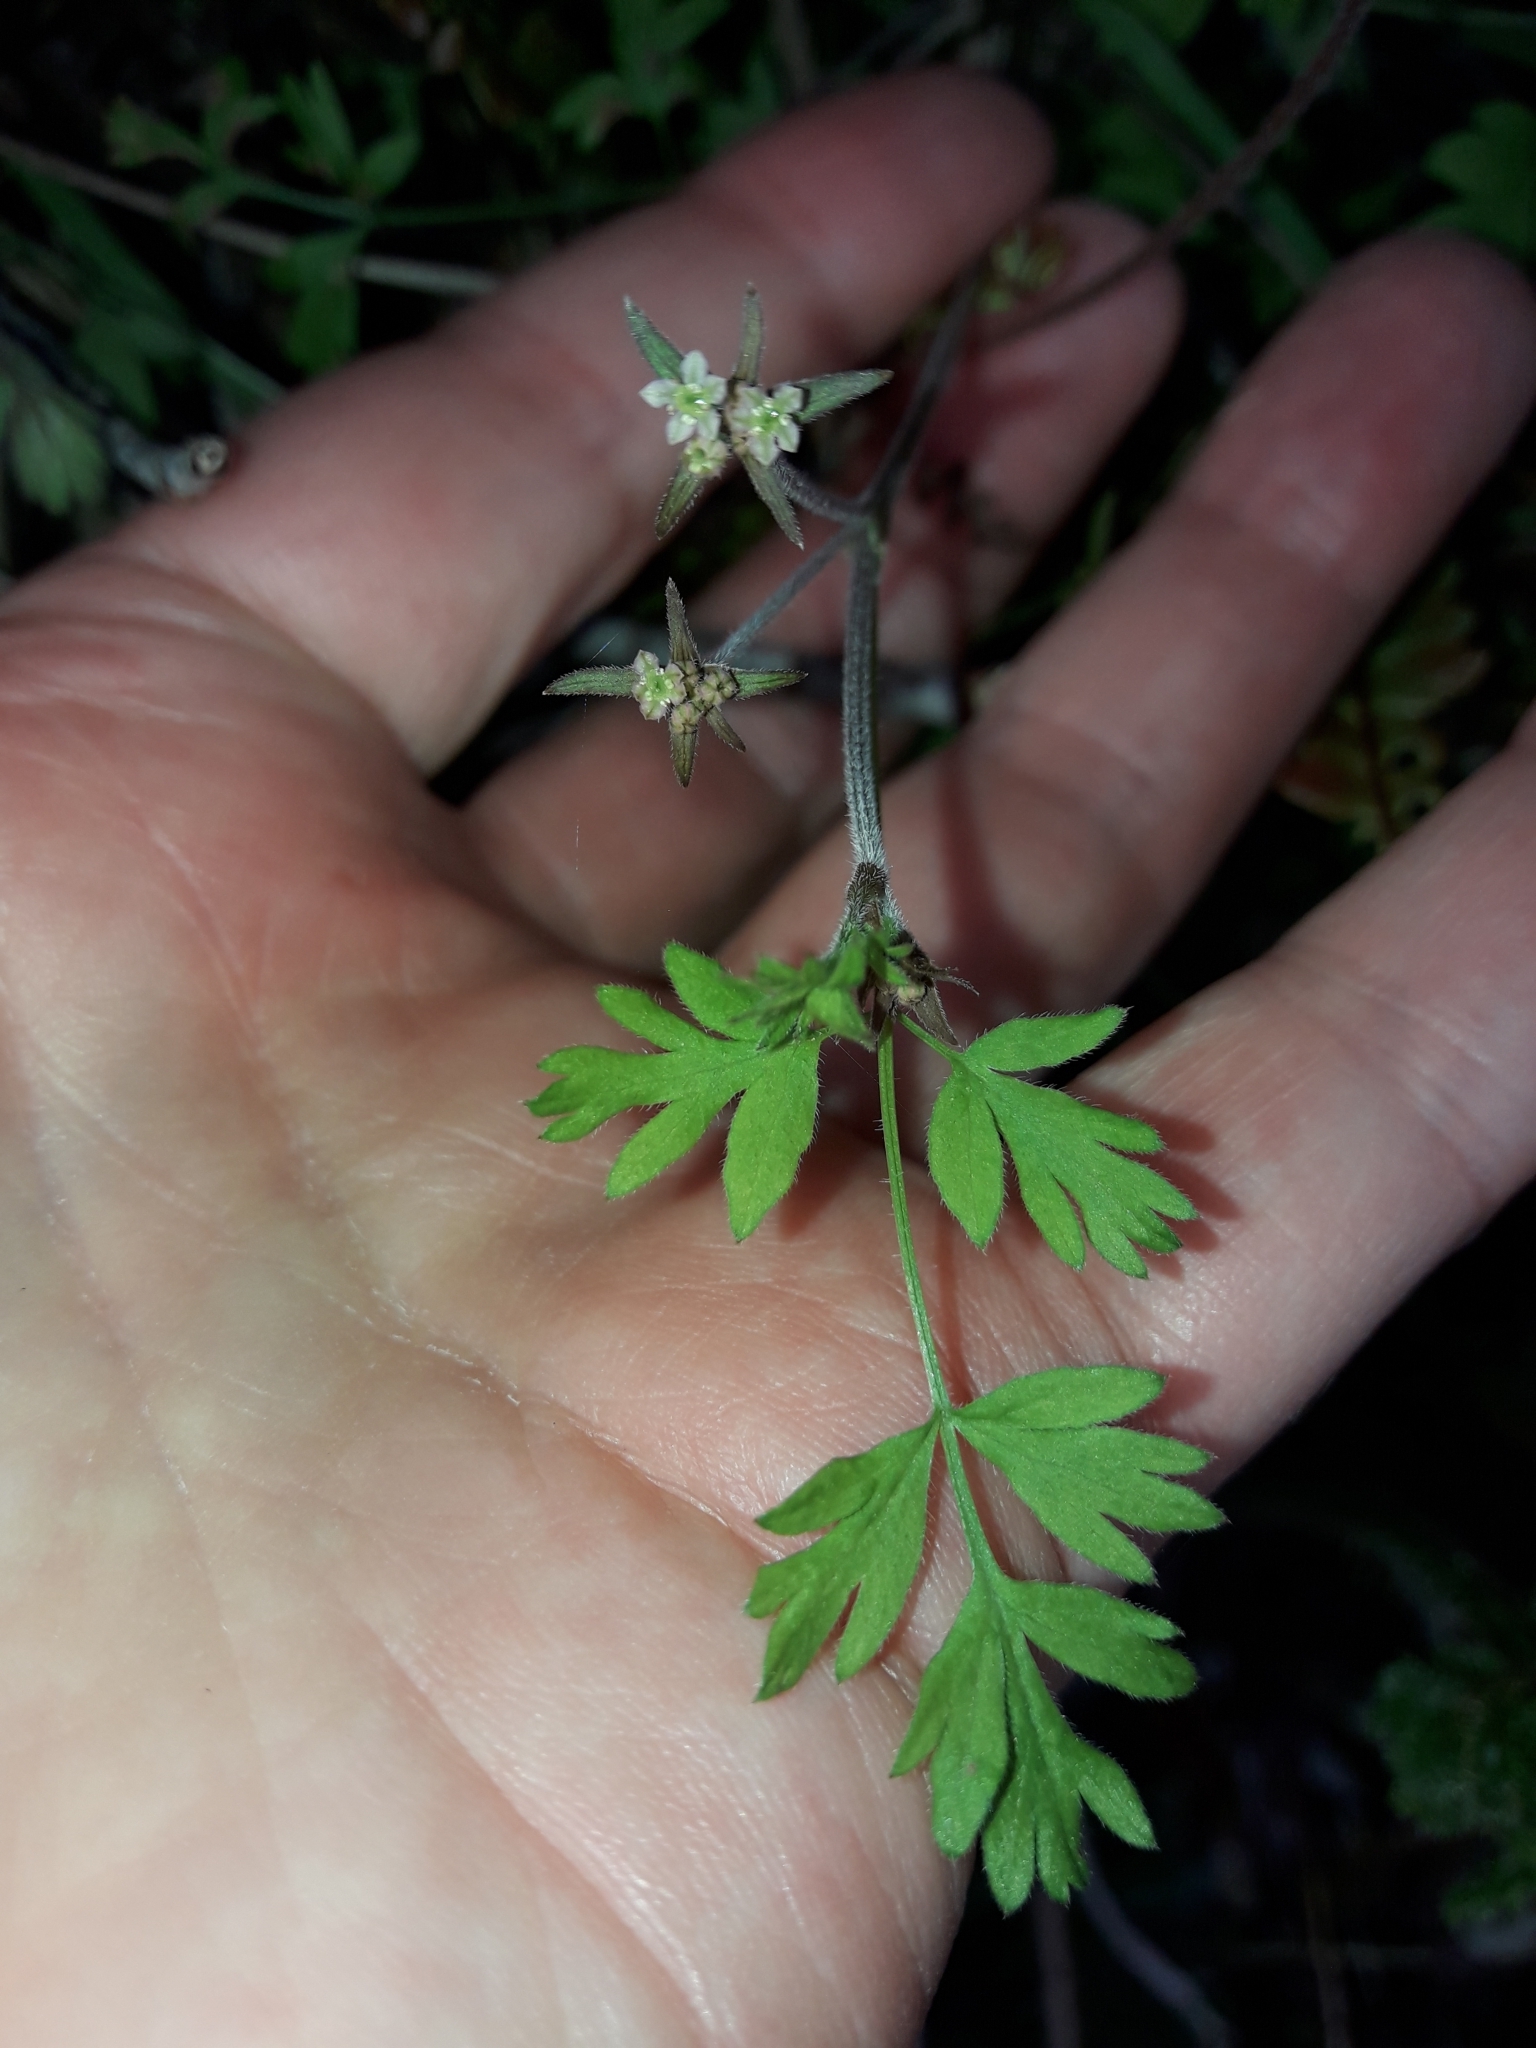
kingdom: Plantae
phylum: Tracheophyta
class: Magnoliopsida
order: Apiales
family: Apiaceae
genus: Chaerophyllum
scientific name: Chaerophyllum ramosum
